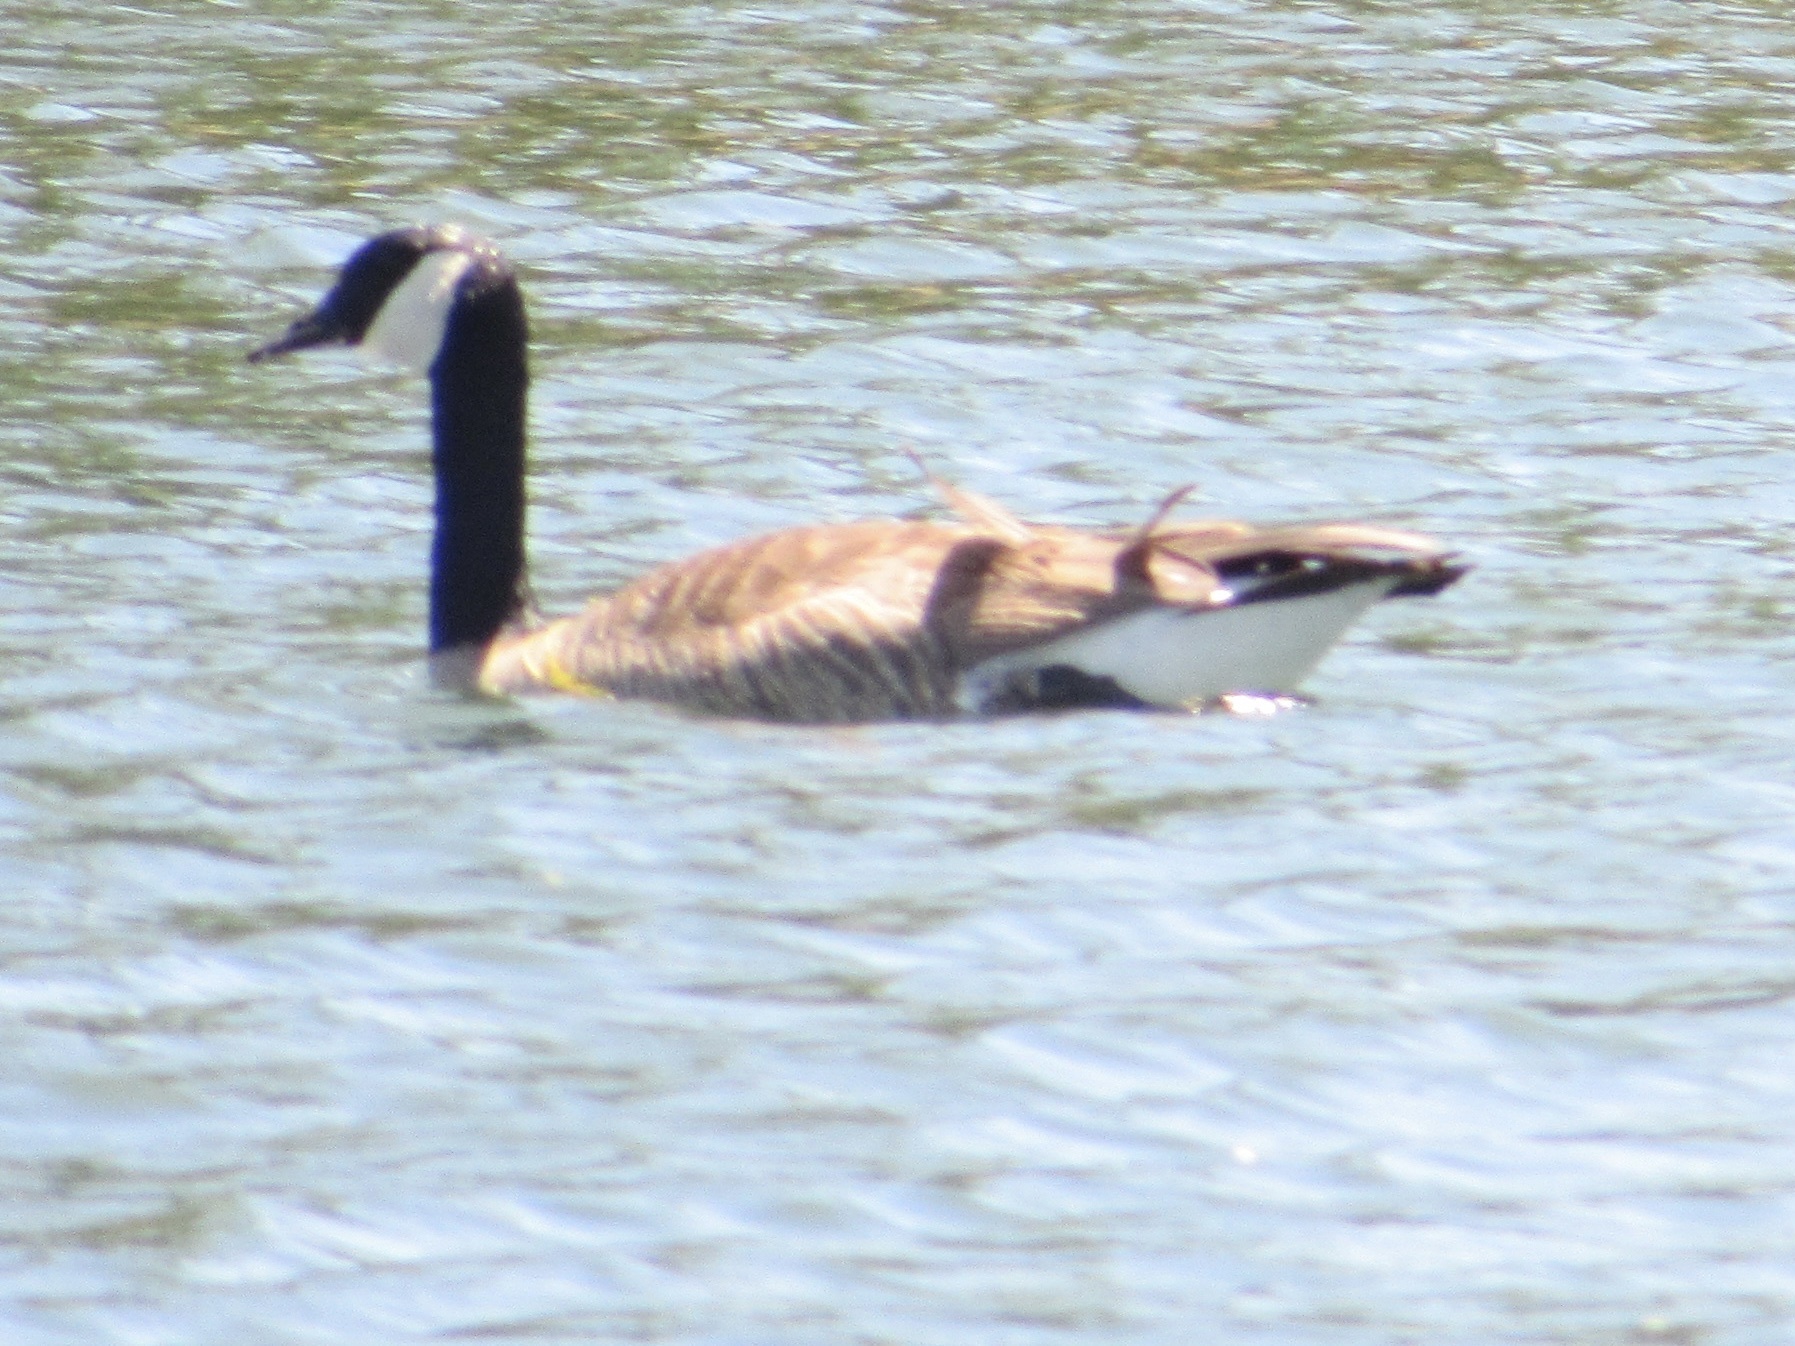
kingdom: Animalia
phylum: Chordata
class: Aves
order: Anseriformes
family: Anatidae
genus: Branta
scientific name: Branta canadensis
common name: Canada goose
